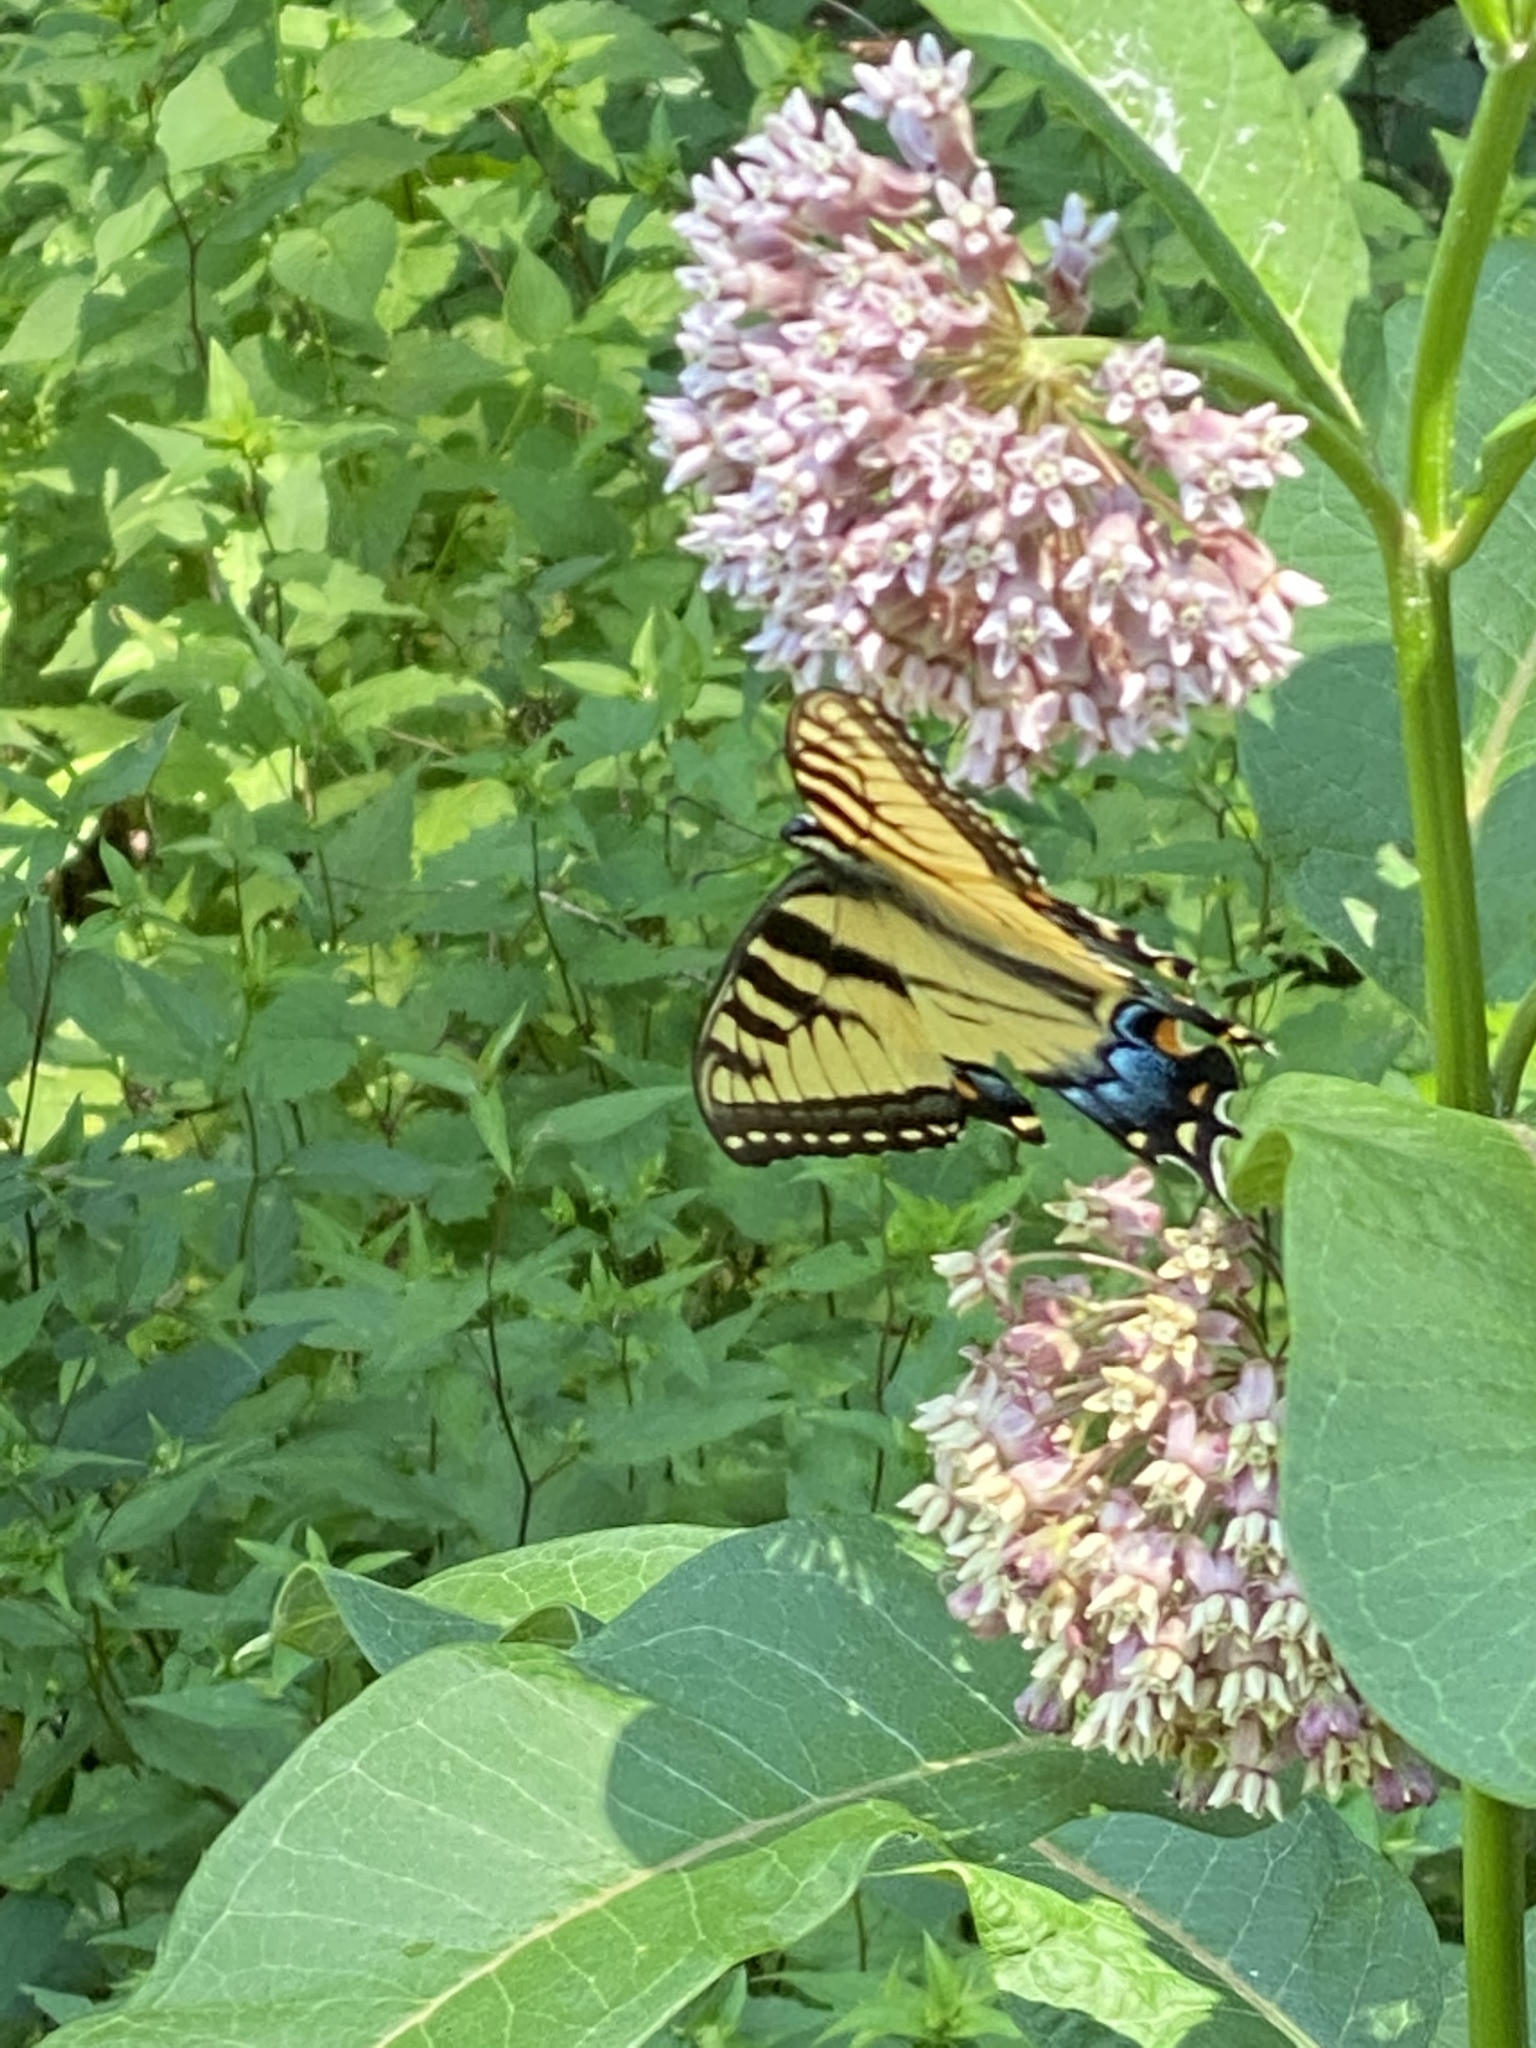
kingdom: Animalia
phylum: Arthropoda
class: Insecta
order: Lepidoptera
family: Papilionidae
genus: Papilio
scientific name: Papilio glaucus
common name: Tiger swallowtail
